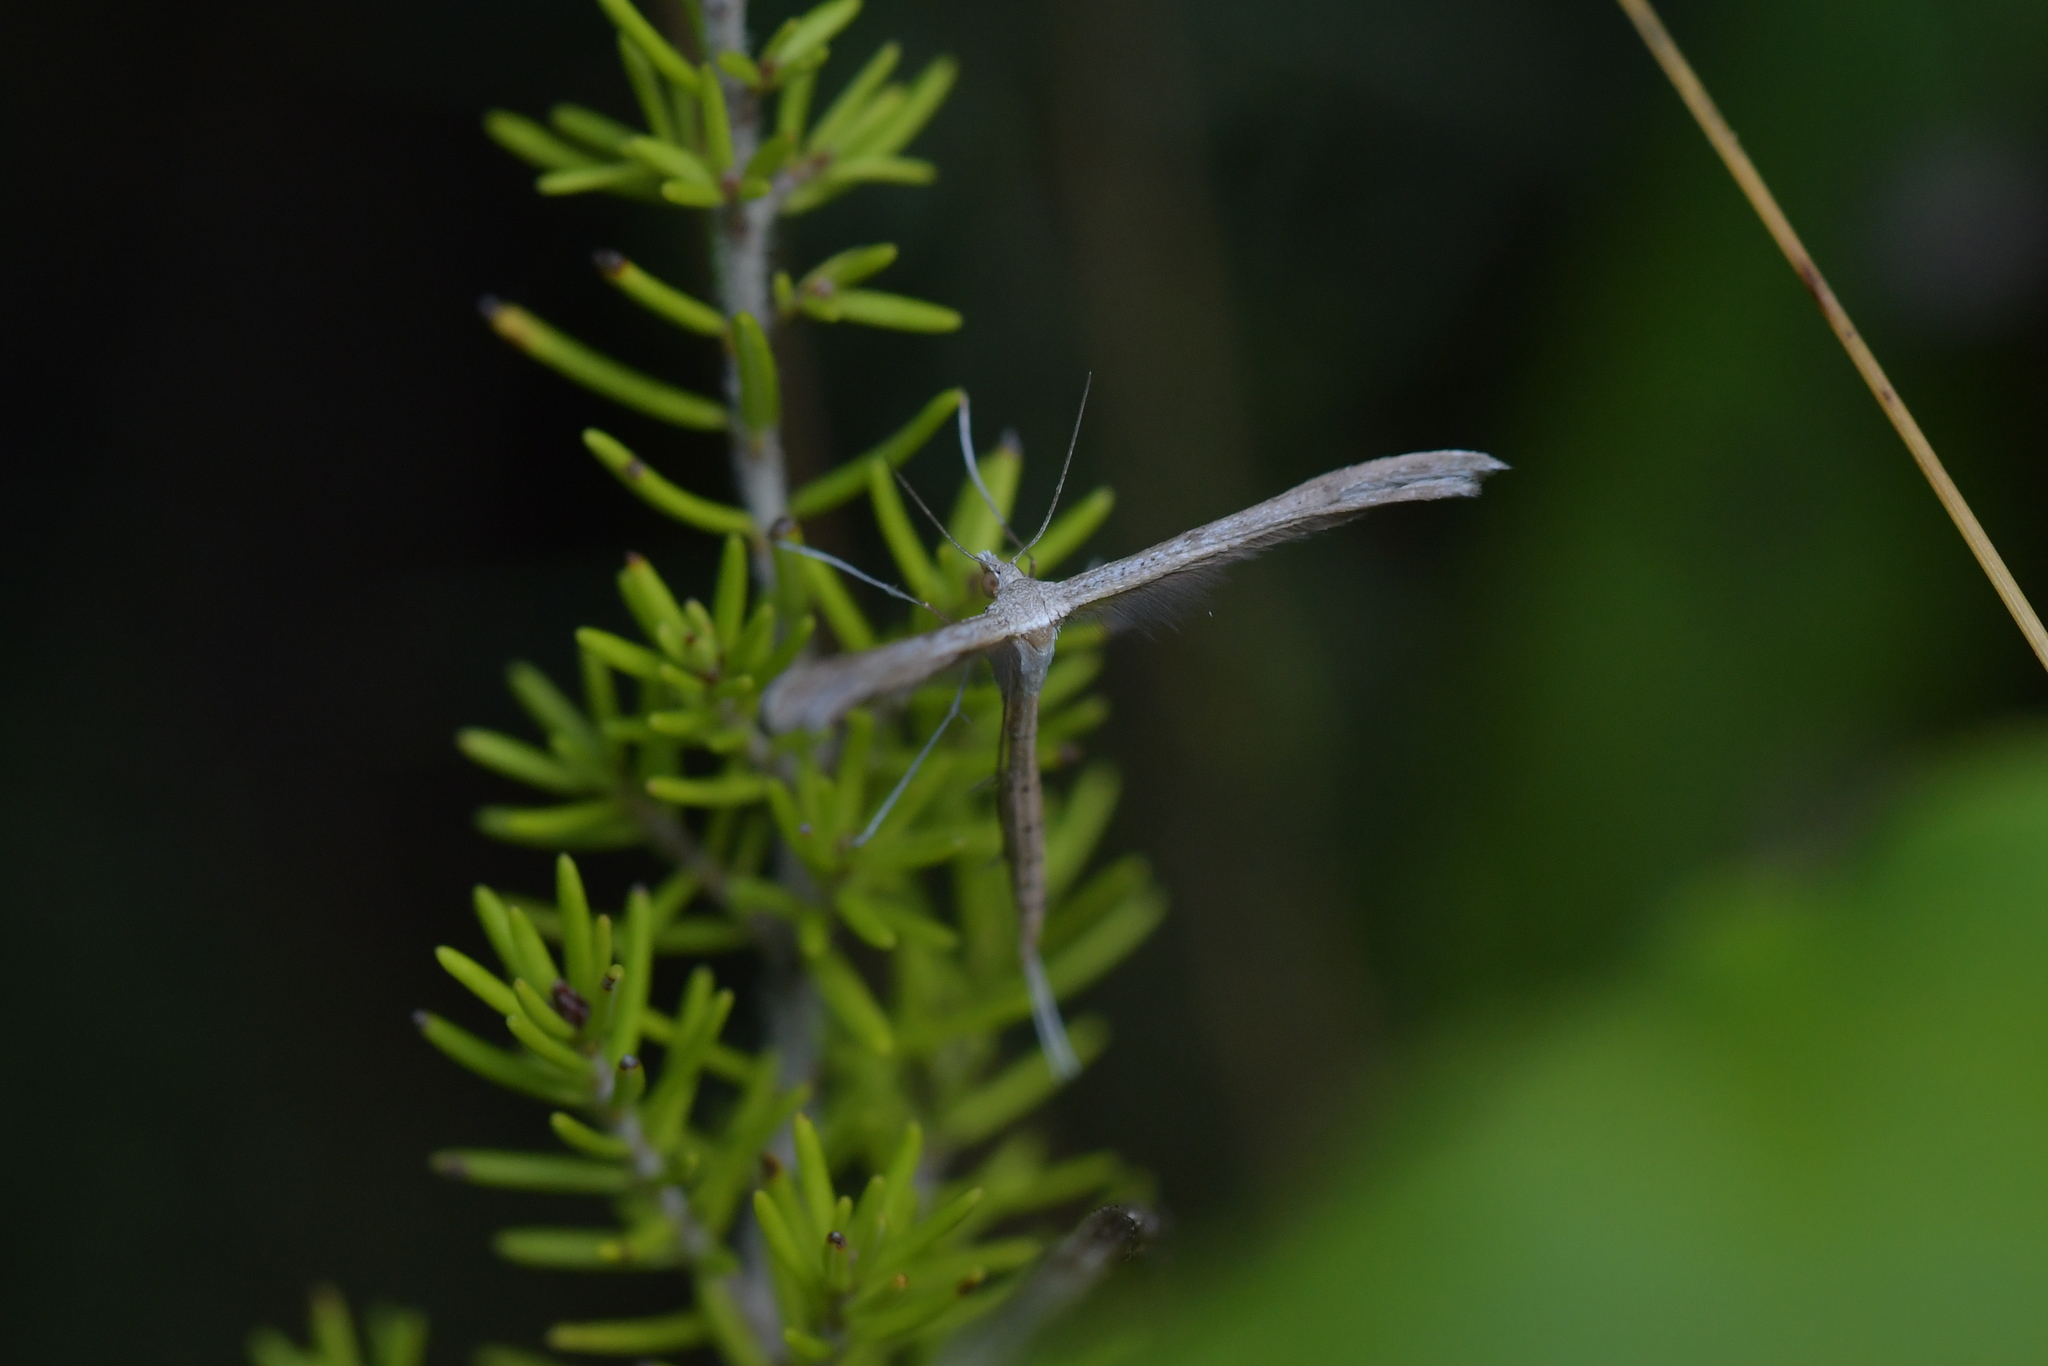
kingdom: Animalia
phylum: Arthropoda
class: Insecta
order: Lepidoptera
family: Pterophoridae
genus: Stenoptilia
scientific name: Stenoptilia zophodactylus
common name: Dowdy plume
